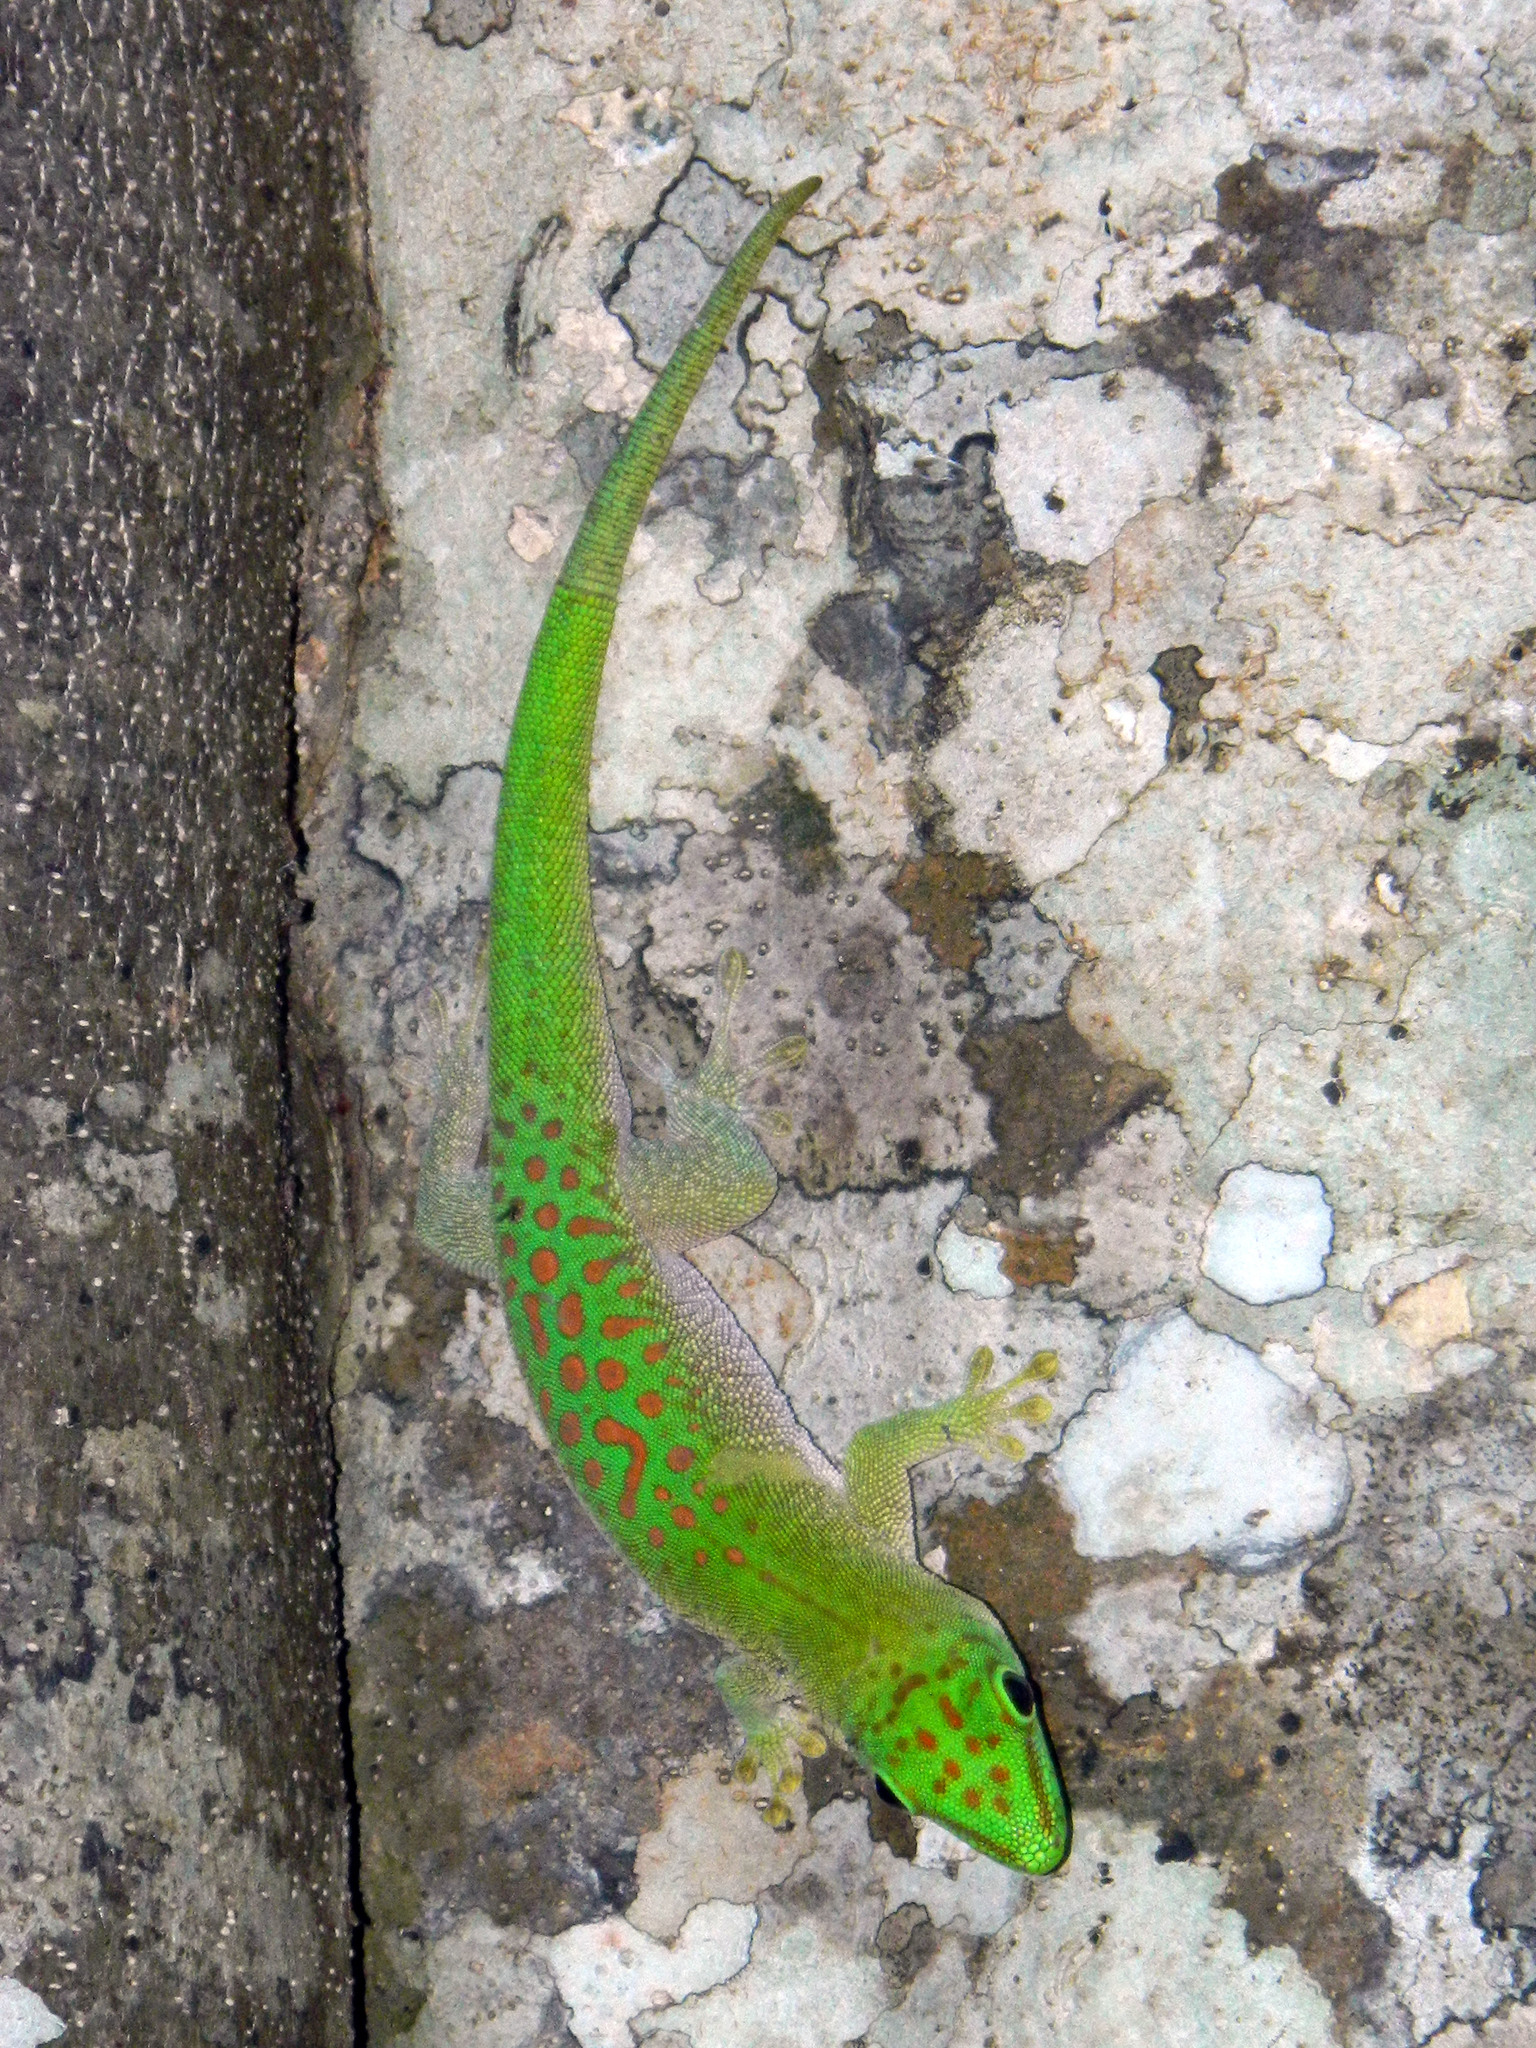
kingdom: Animalia
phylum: Chordata
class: Squamata
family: Gekkonidae
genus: Phelsuma
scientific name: Phelsuma kochi
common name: Madagascar day gecko
